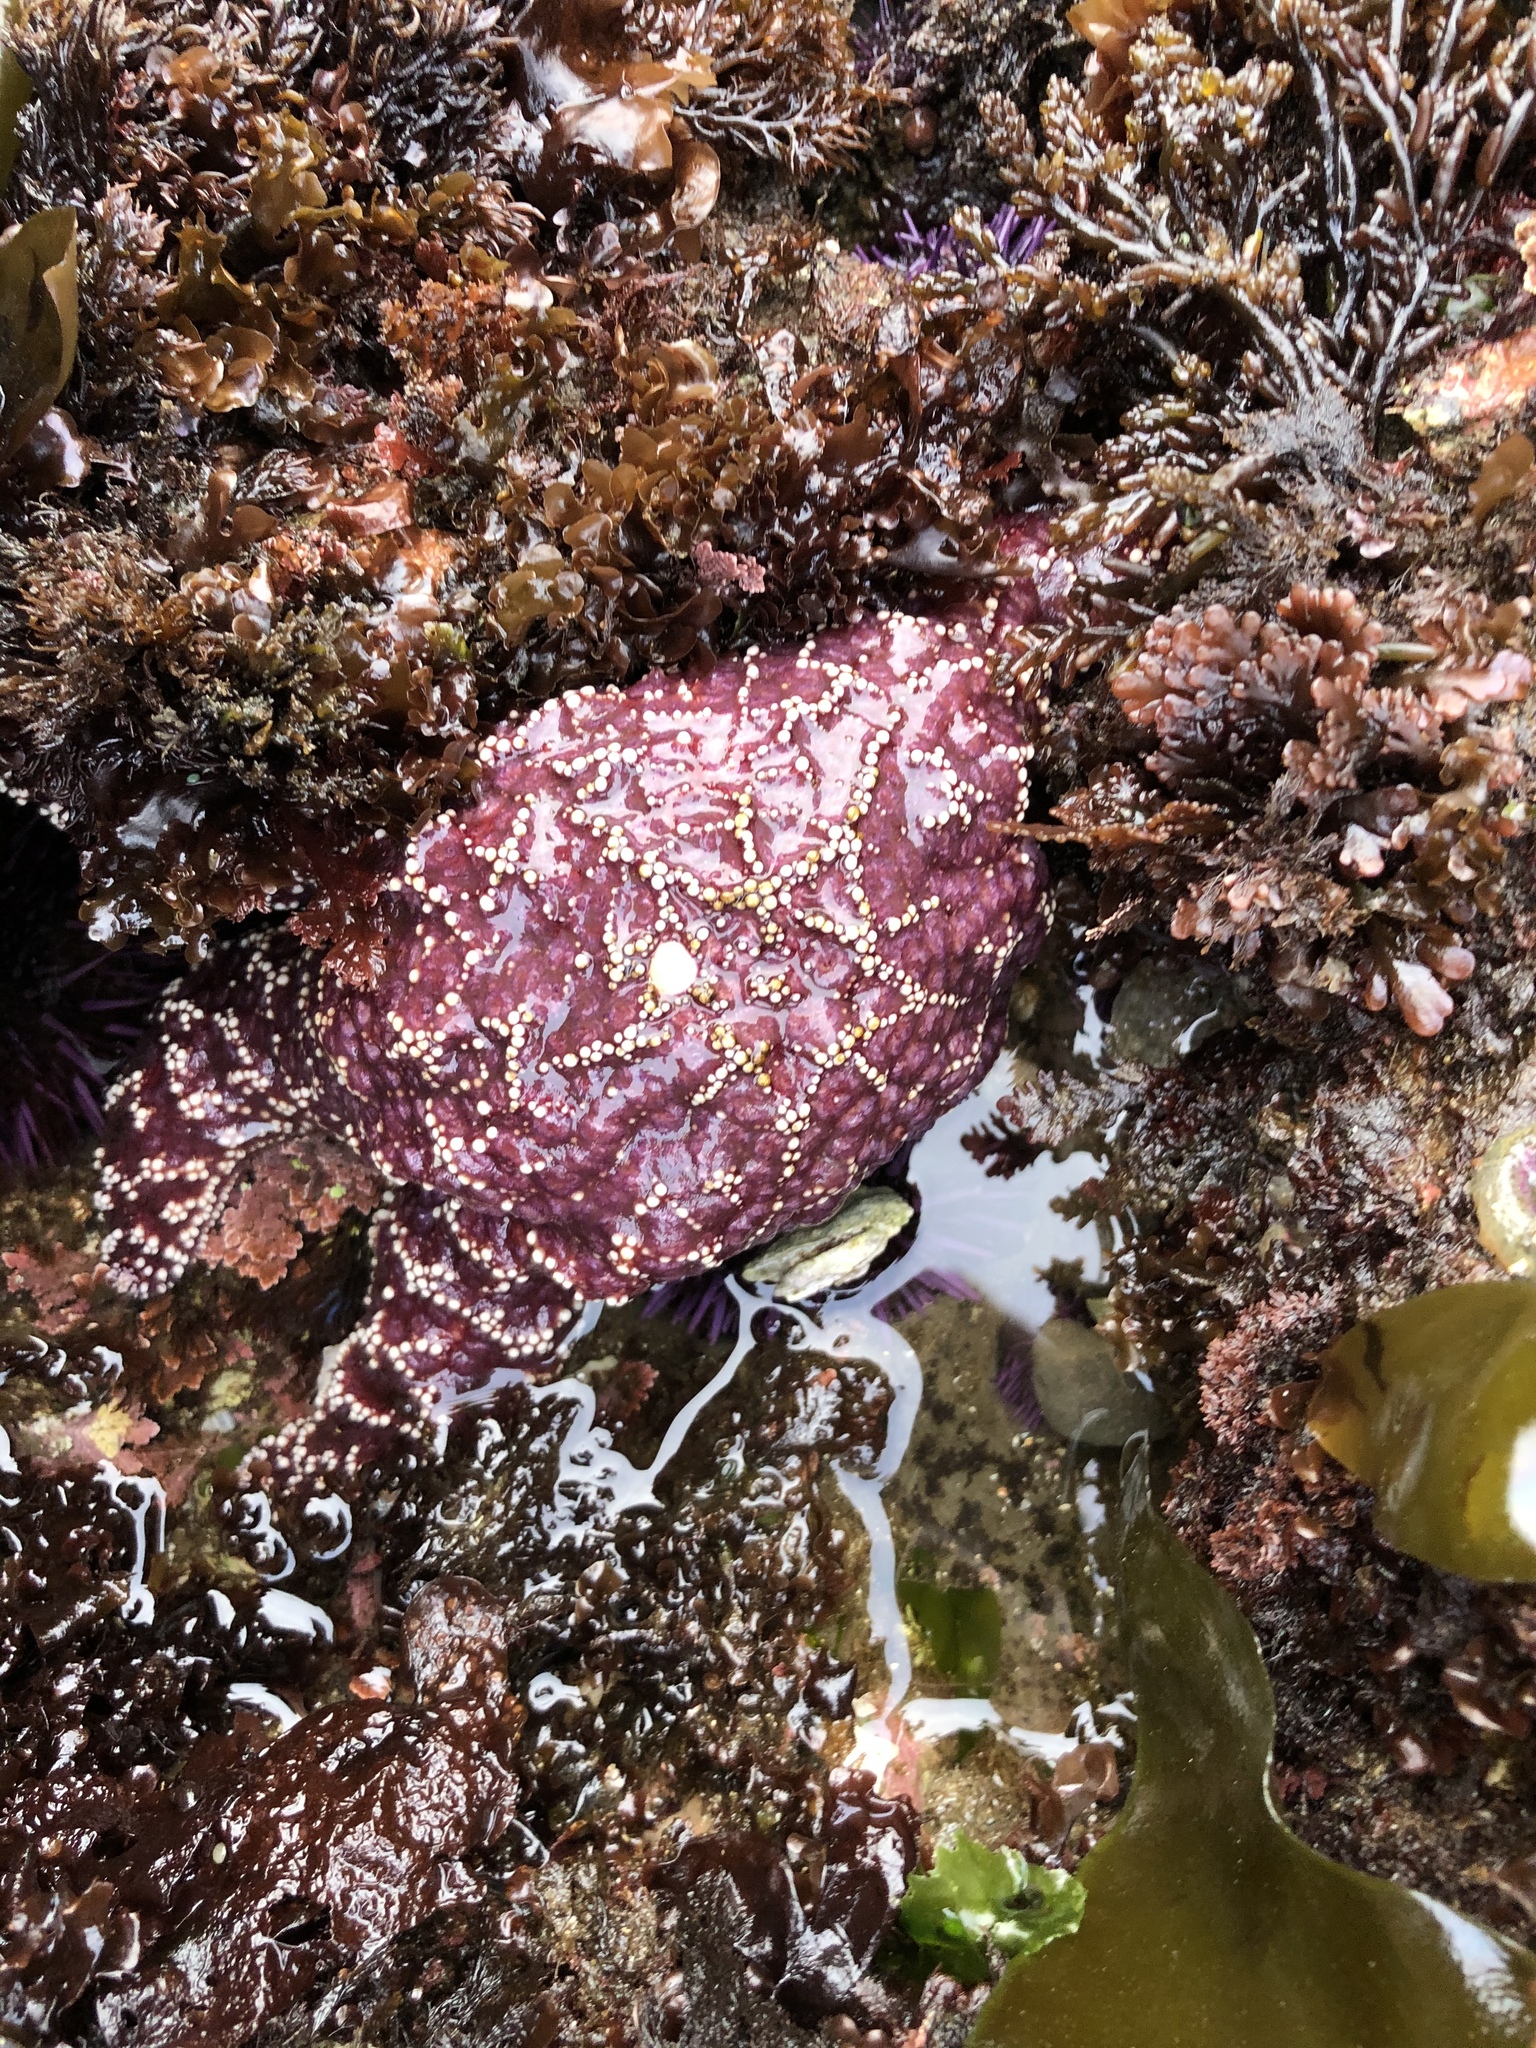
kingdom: Animalia
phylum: Echinodermata
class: Asteroidea
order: Forcipulatida
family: Asteriidae
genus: Pisaster
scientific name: Pisaster ochraceus
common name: Ochre stars
